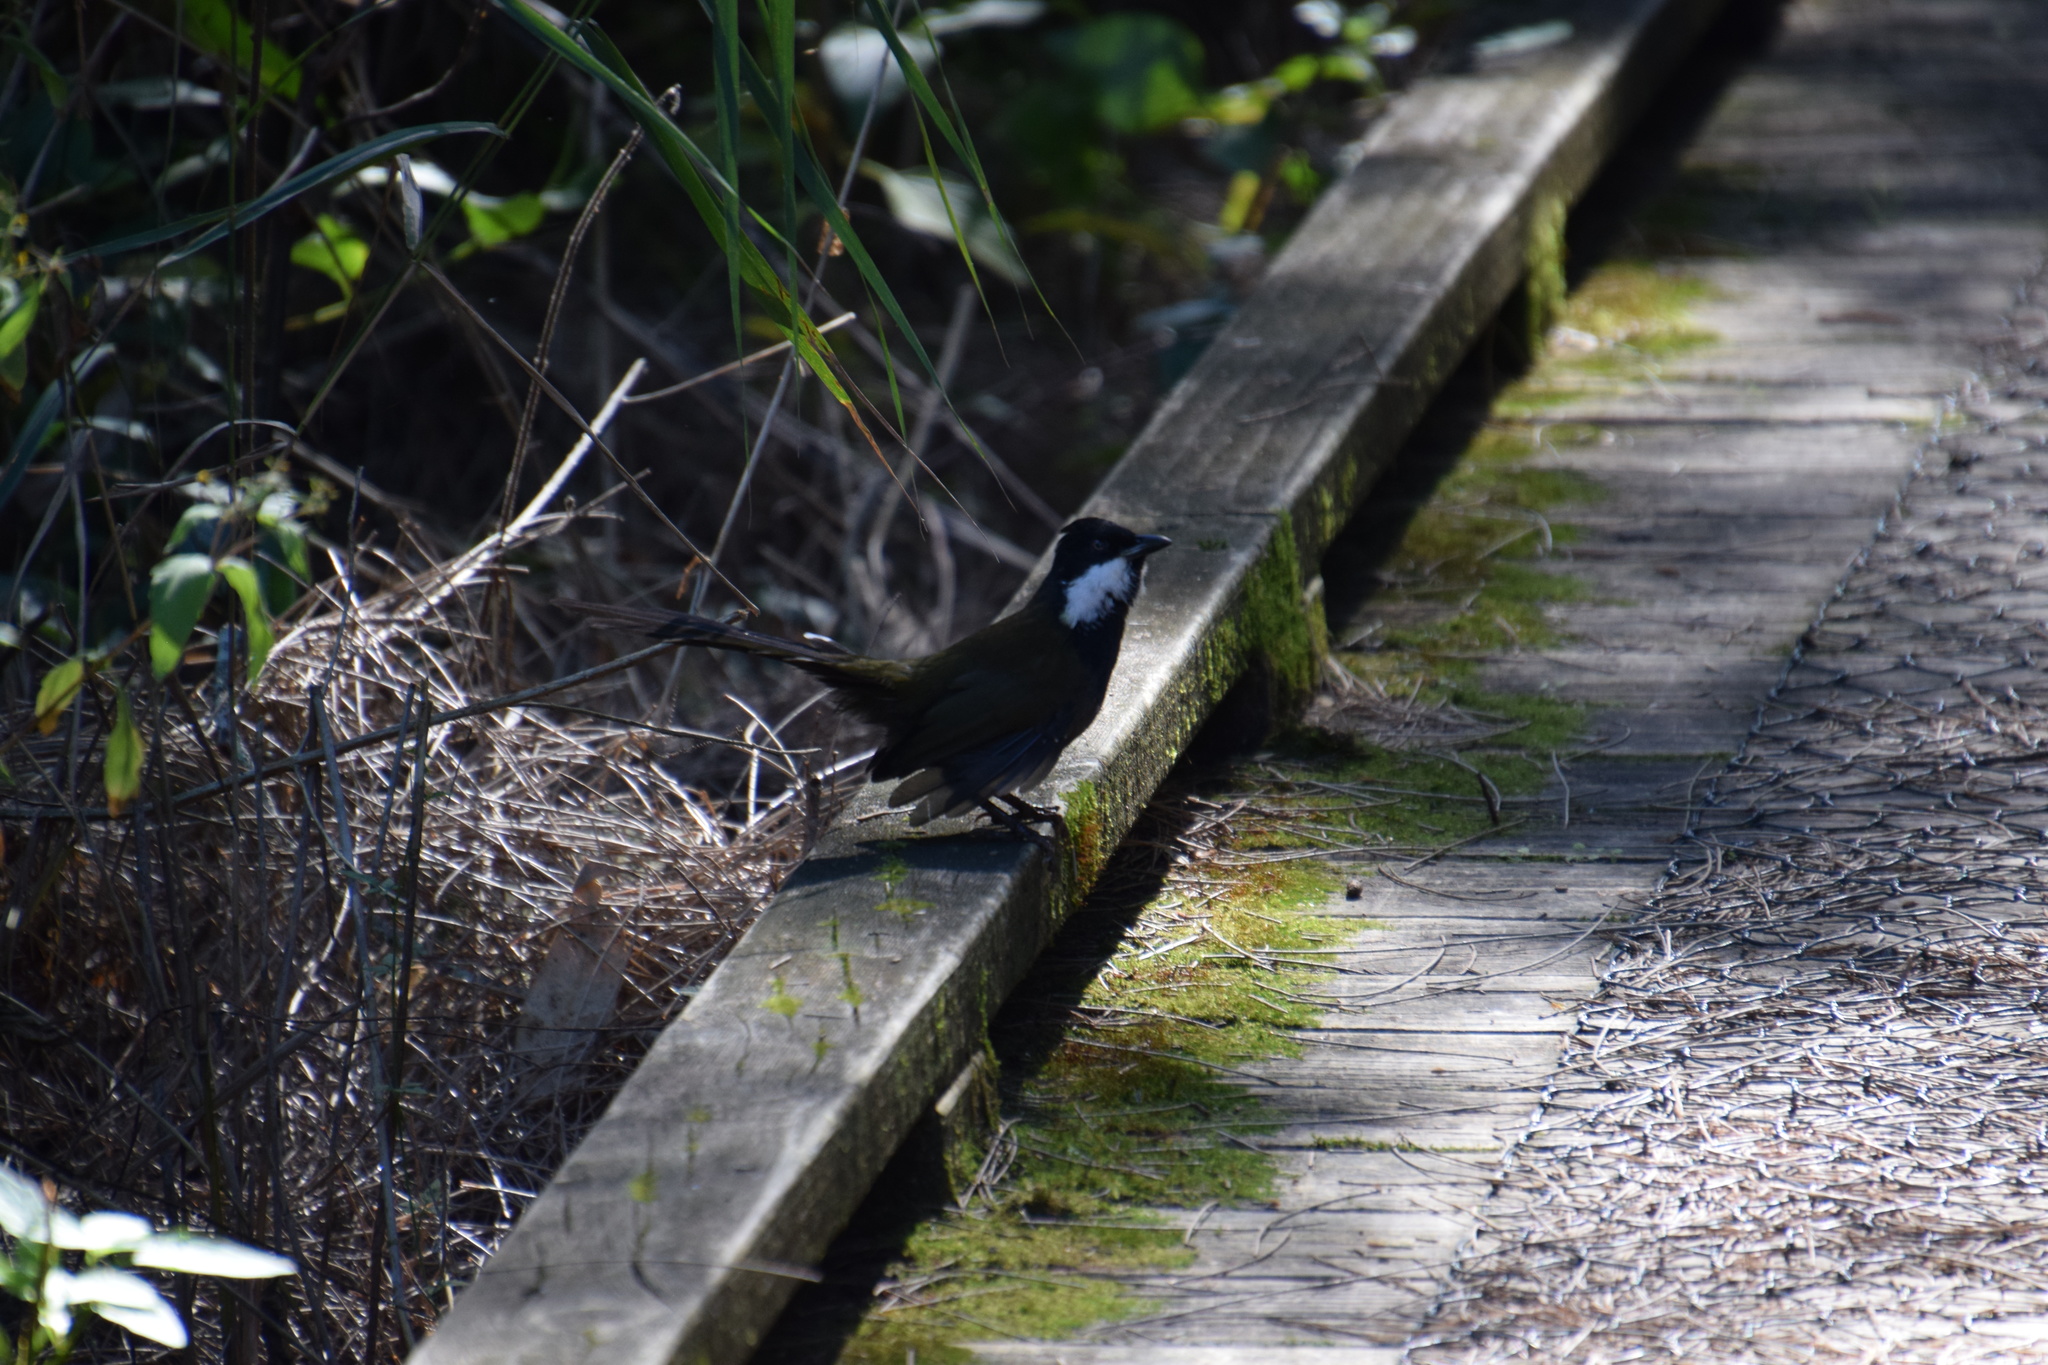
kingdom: Animalia
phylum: Chordata
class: Aves
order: Passeriformes
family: Psophodidae
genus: Psophodes
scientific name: Psophodes olivaceus
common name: Eastern whipbird
